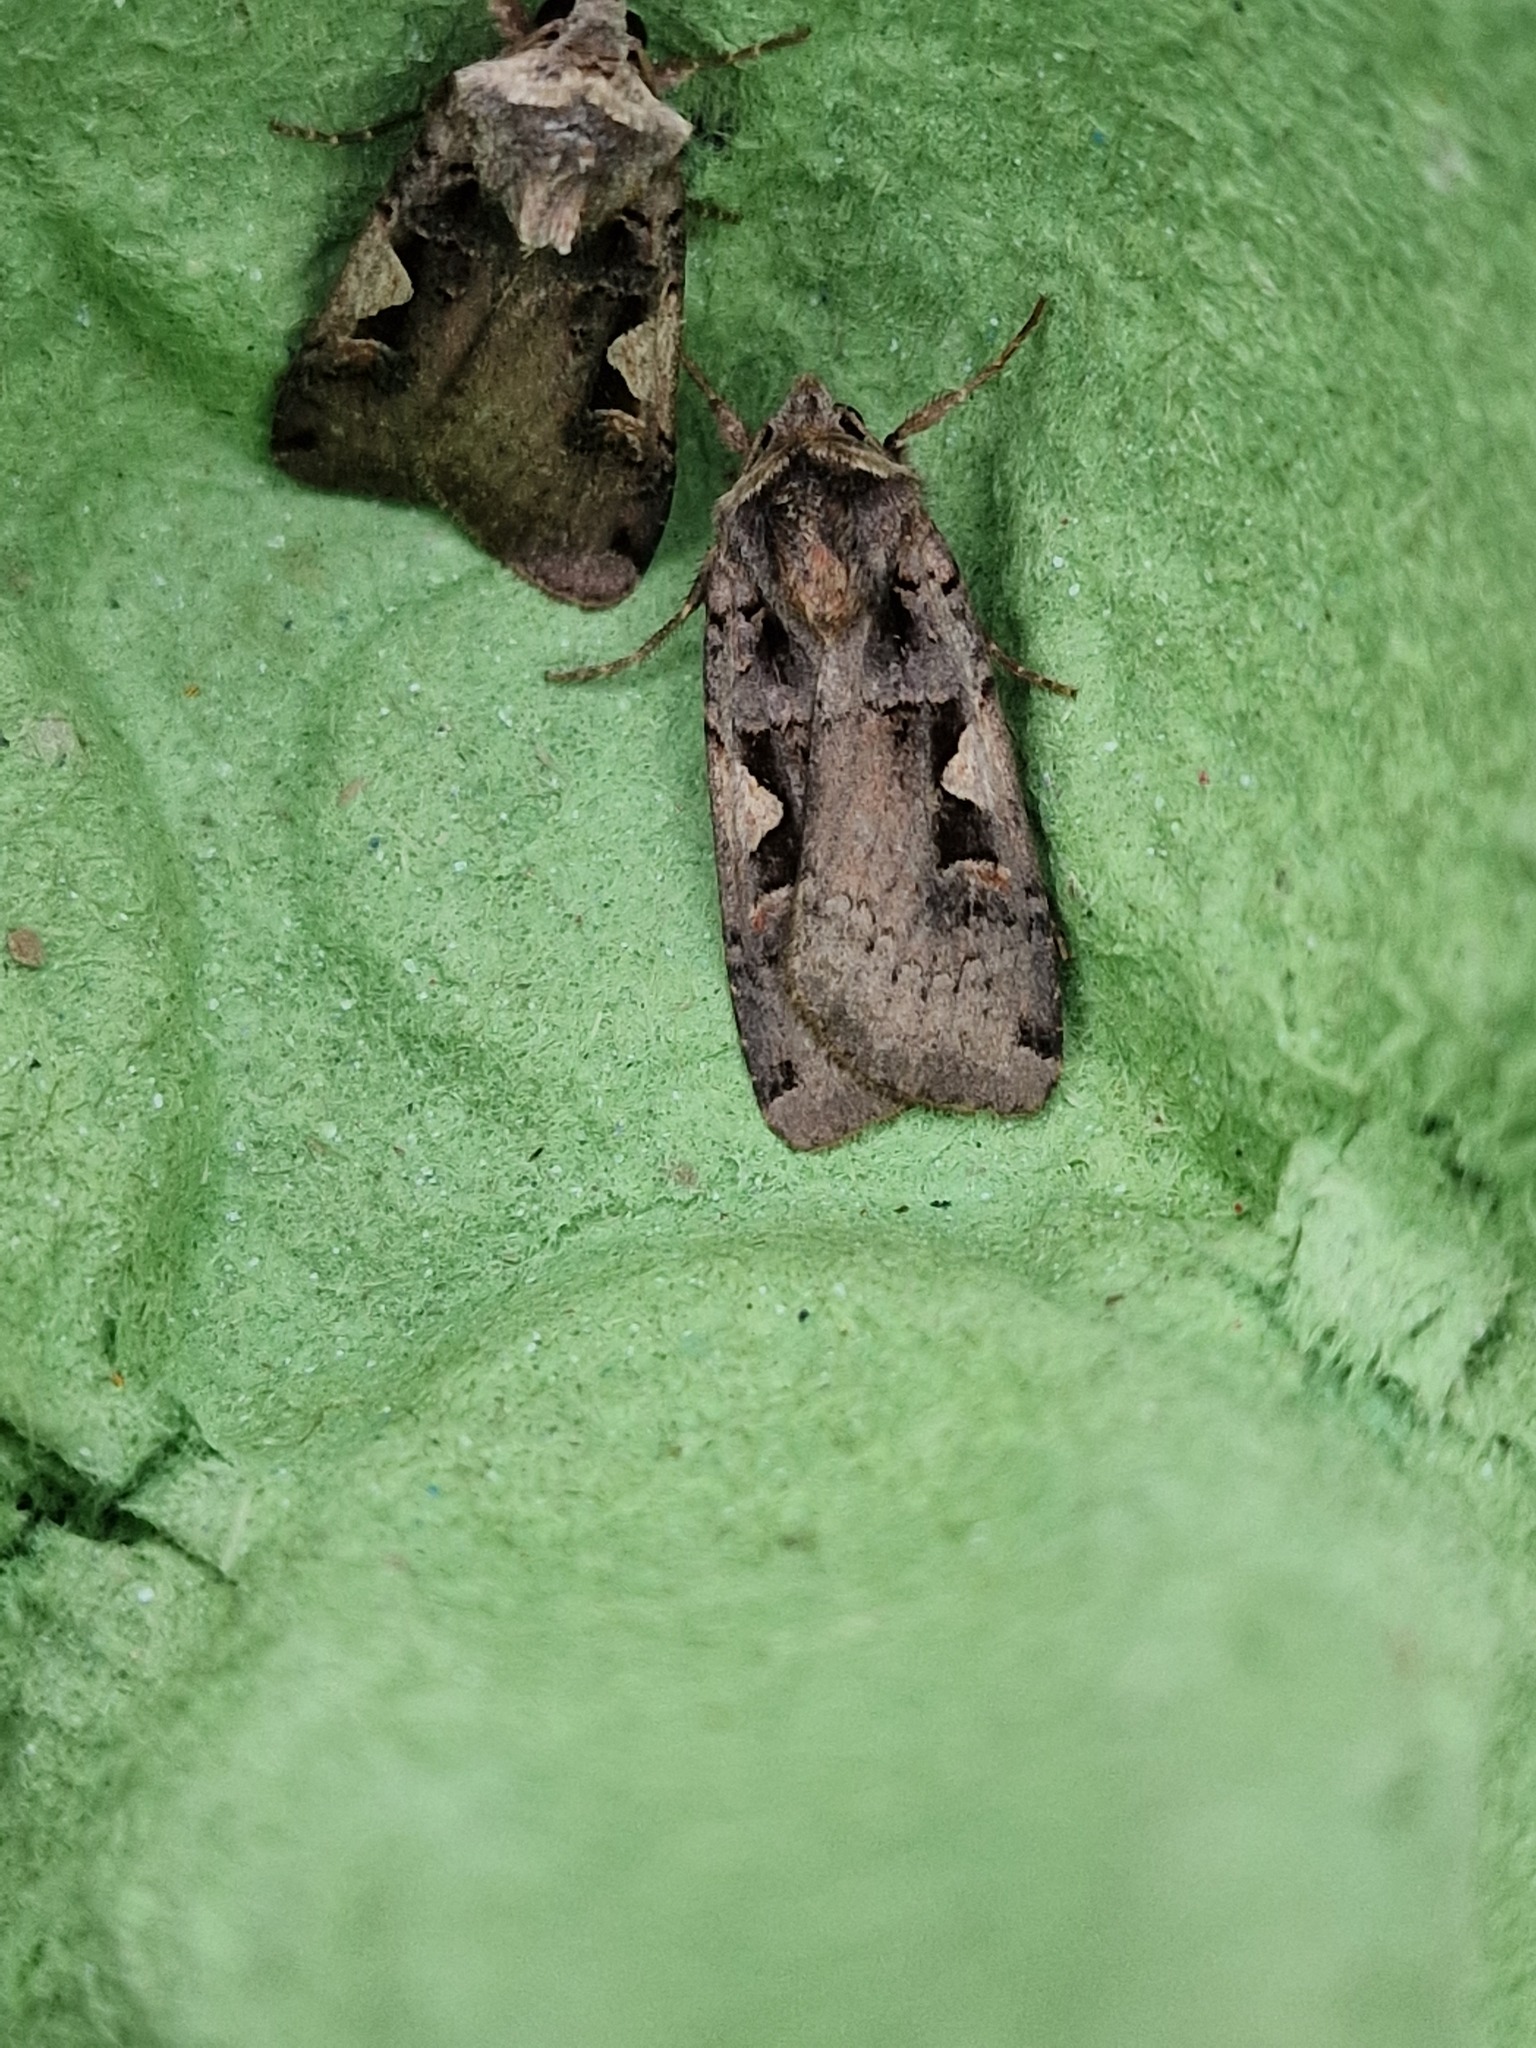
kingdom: Animalia
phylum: Arthropoda
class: Insecta
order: Lepidoptera
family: Noctuidae
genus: Xestia
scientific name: Xestia c-nigrum
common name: Setaceous hebrew character
